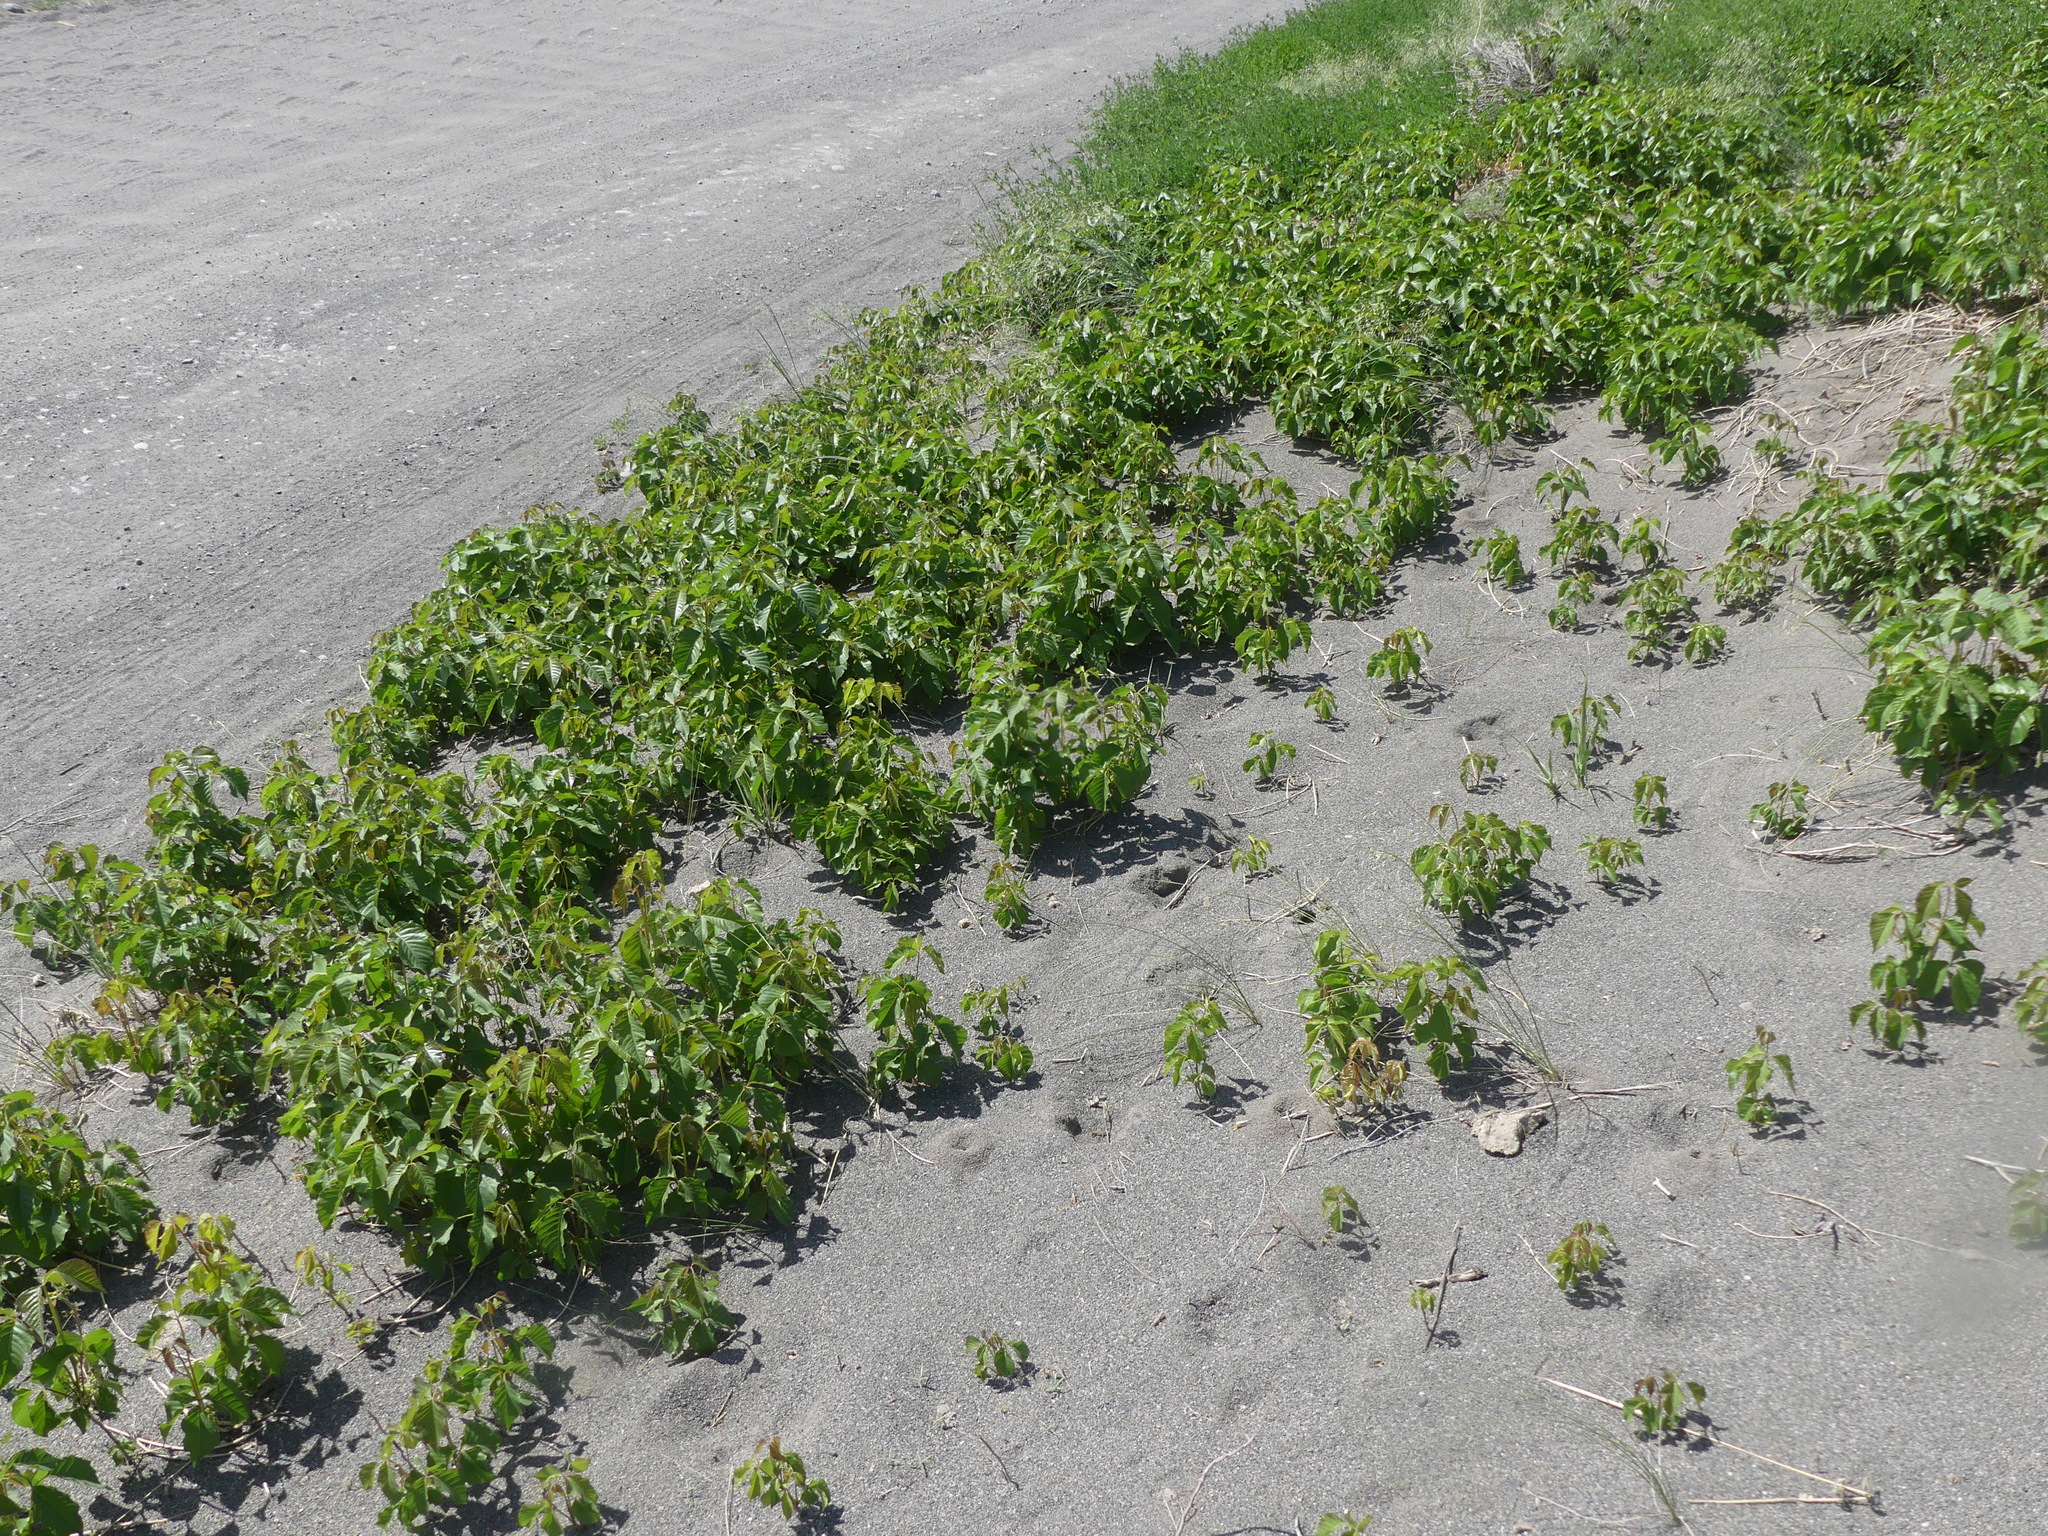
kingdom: Plantae
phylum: Tracheophyta
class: Magnoliopsida
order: Sapindales
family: Anacardiaceae
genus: Toxicodendron
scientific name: Toxicodendron rydbergii
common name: Rydberg's poison-ivy
